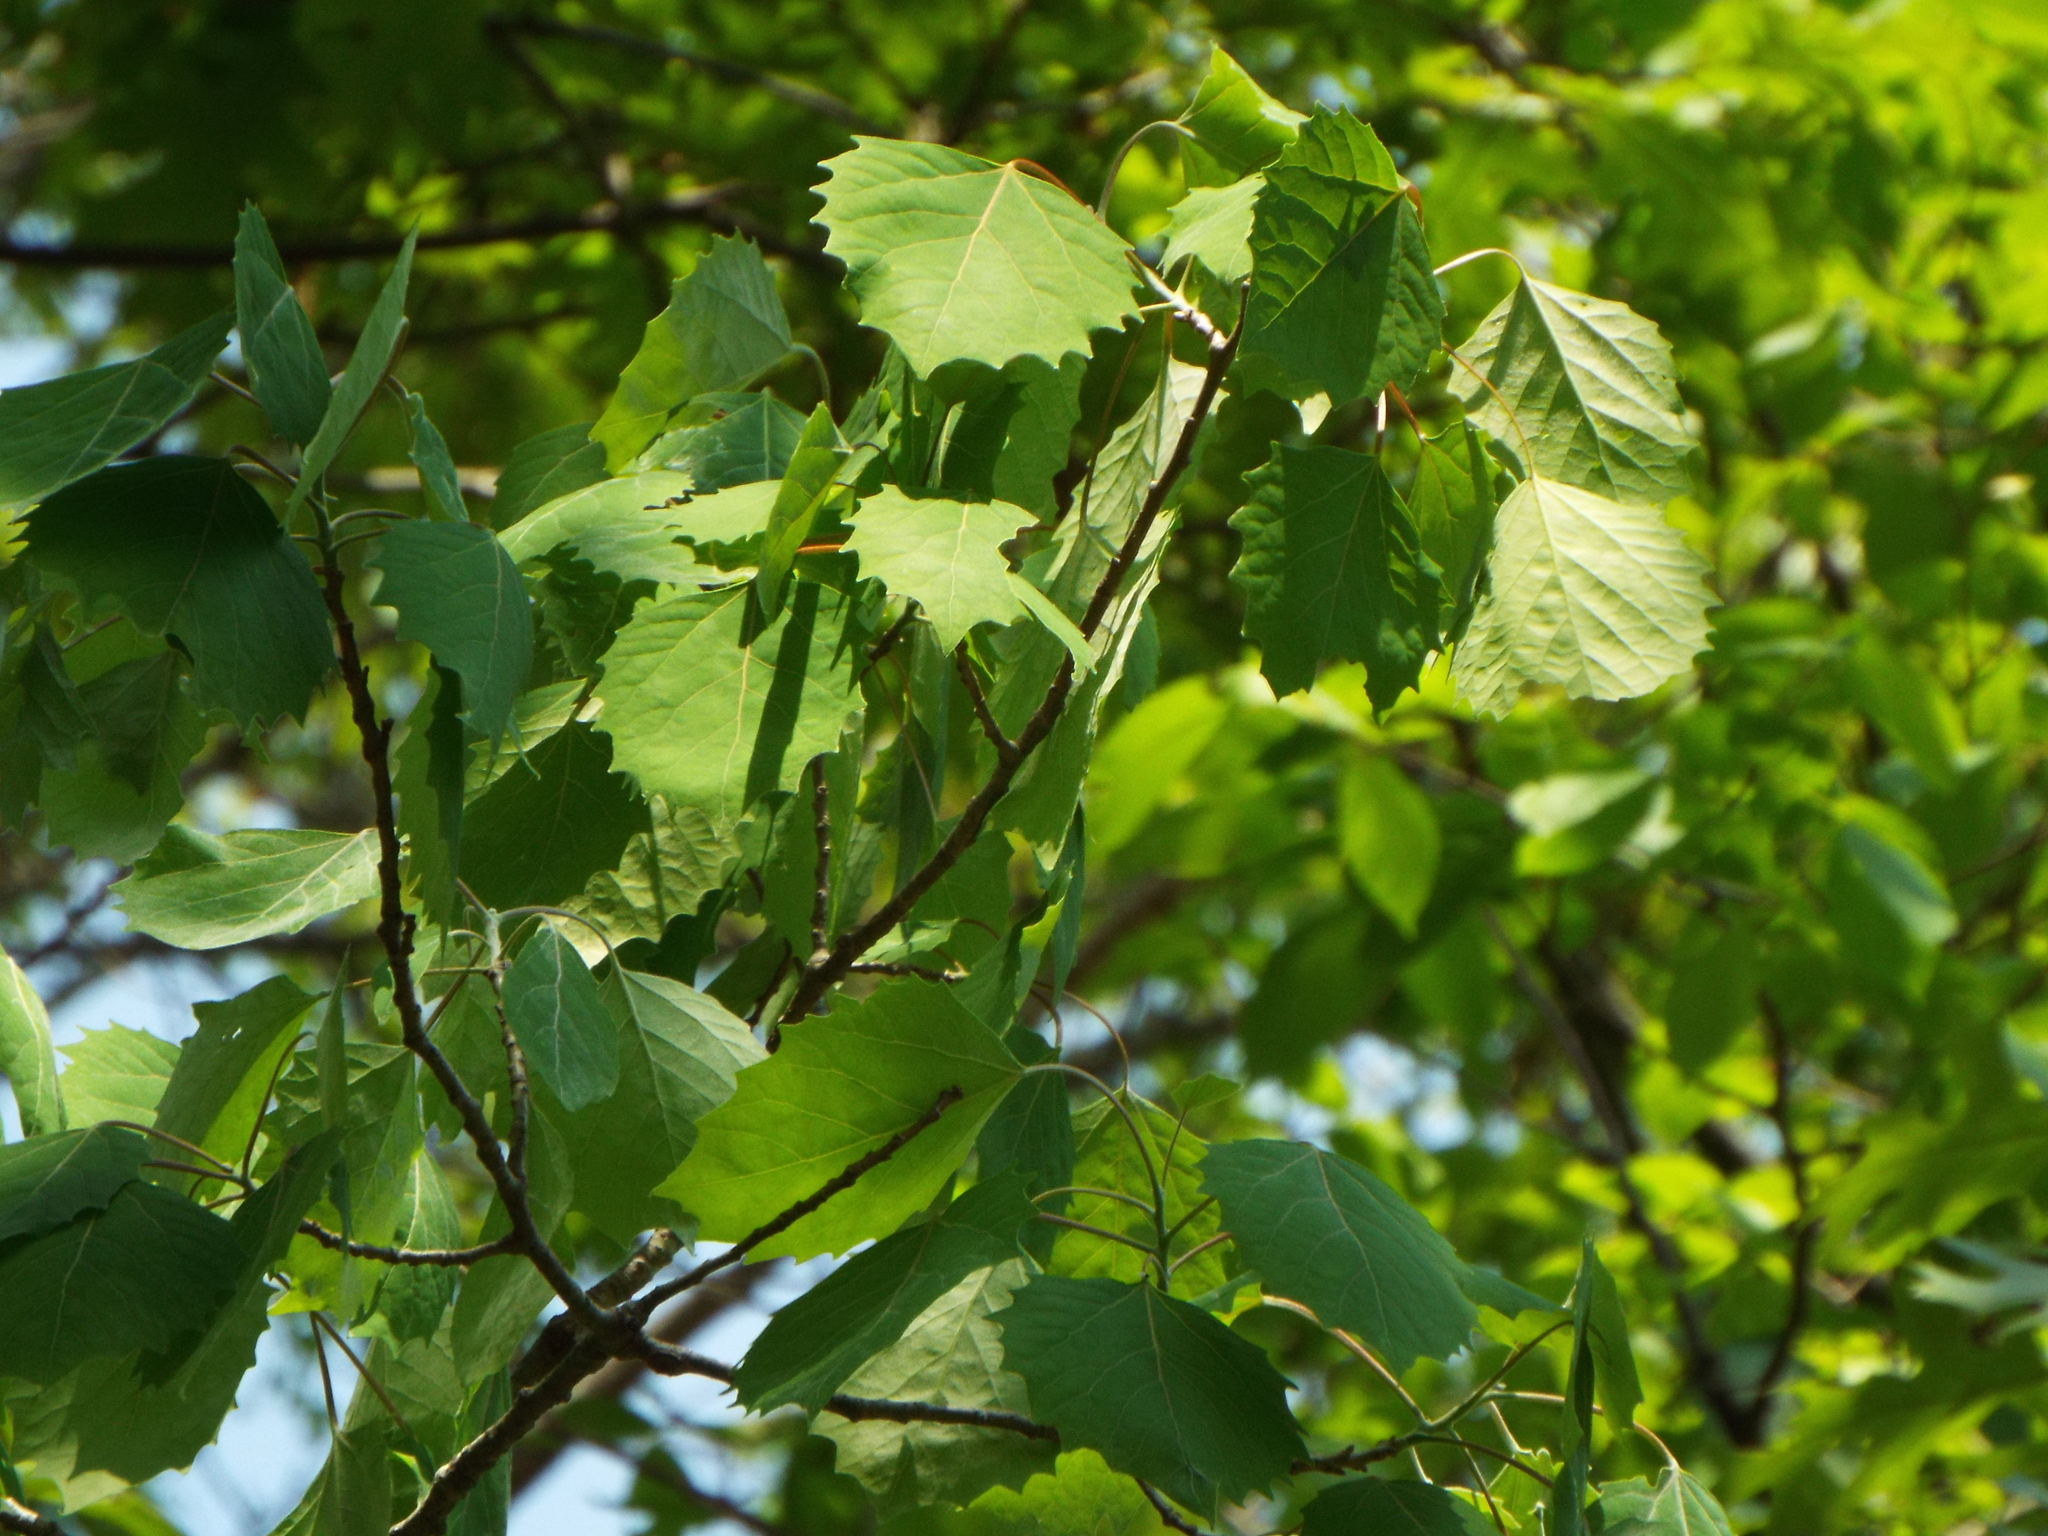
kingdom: Plantae
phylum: Tracheophyta
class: Magnoliopsida
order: Malpighiales
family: Salicaceae
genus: Populus
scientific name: Populus grandidentata
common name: Bigtooth aspen
